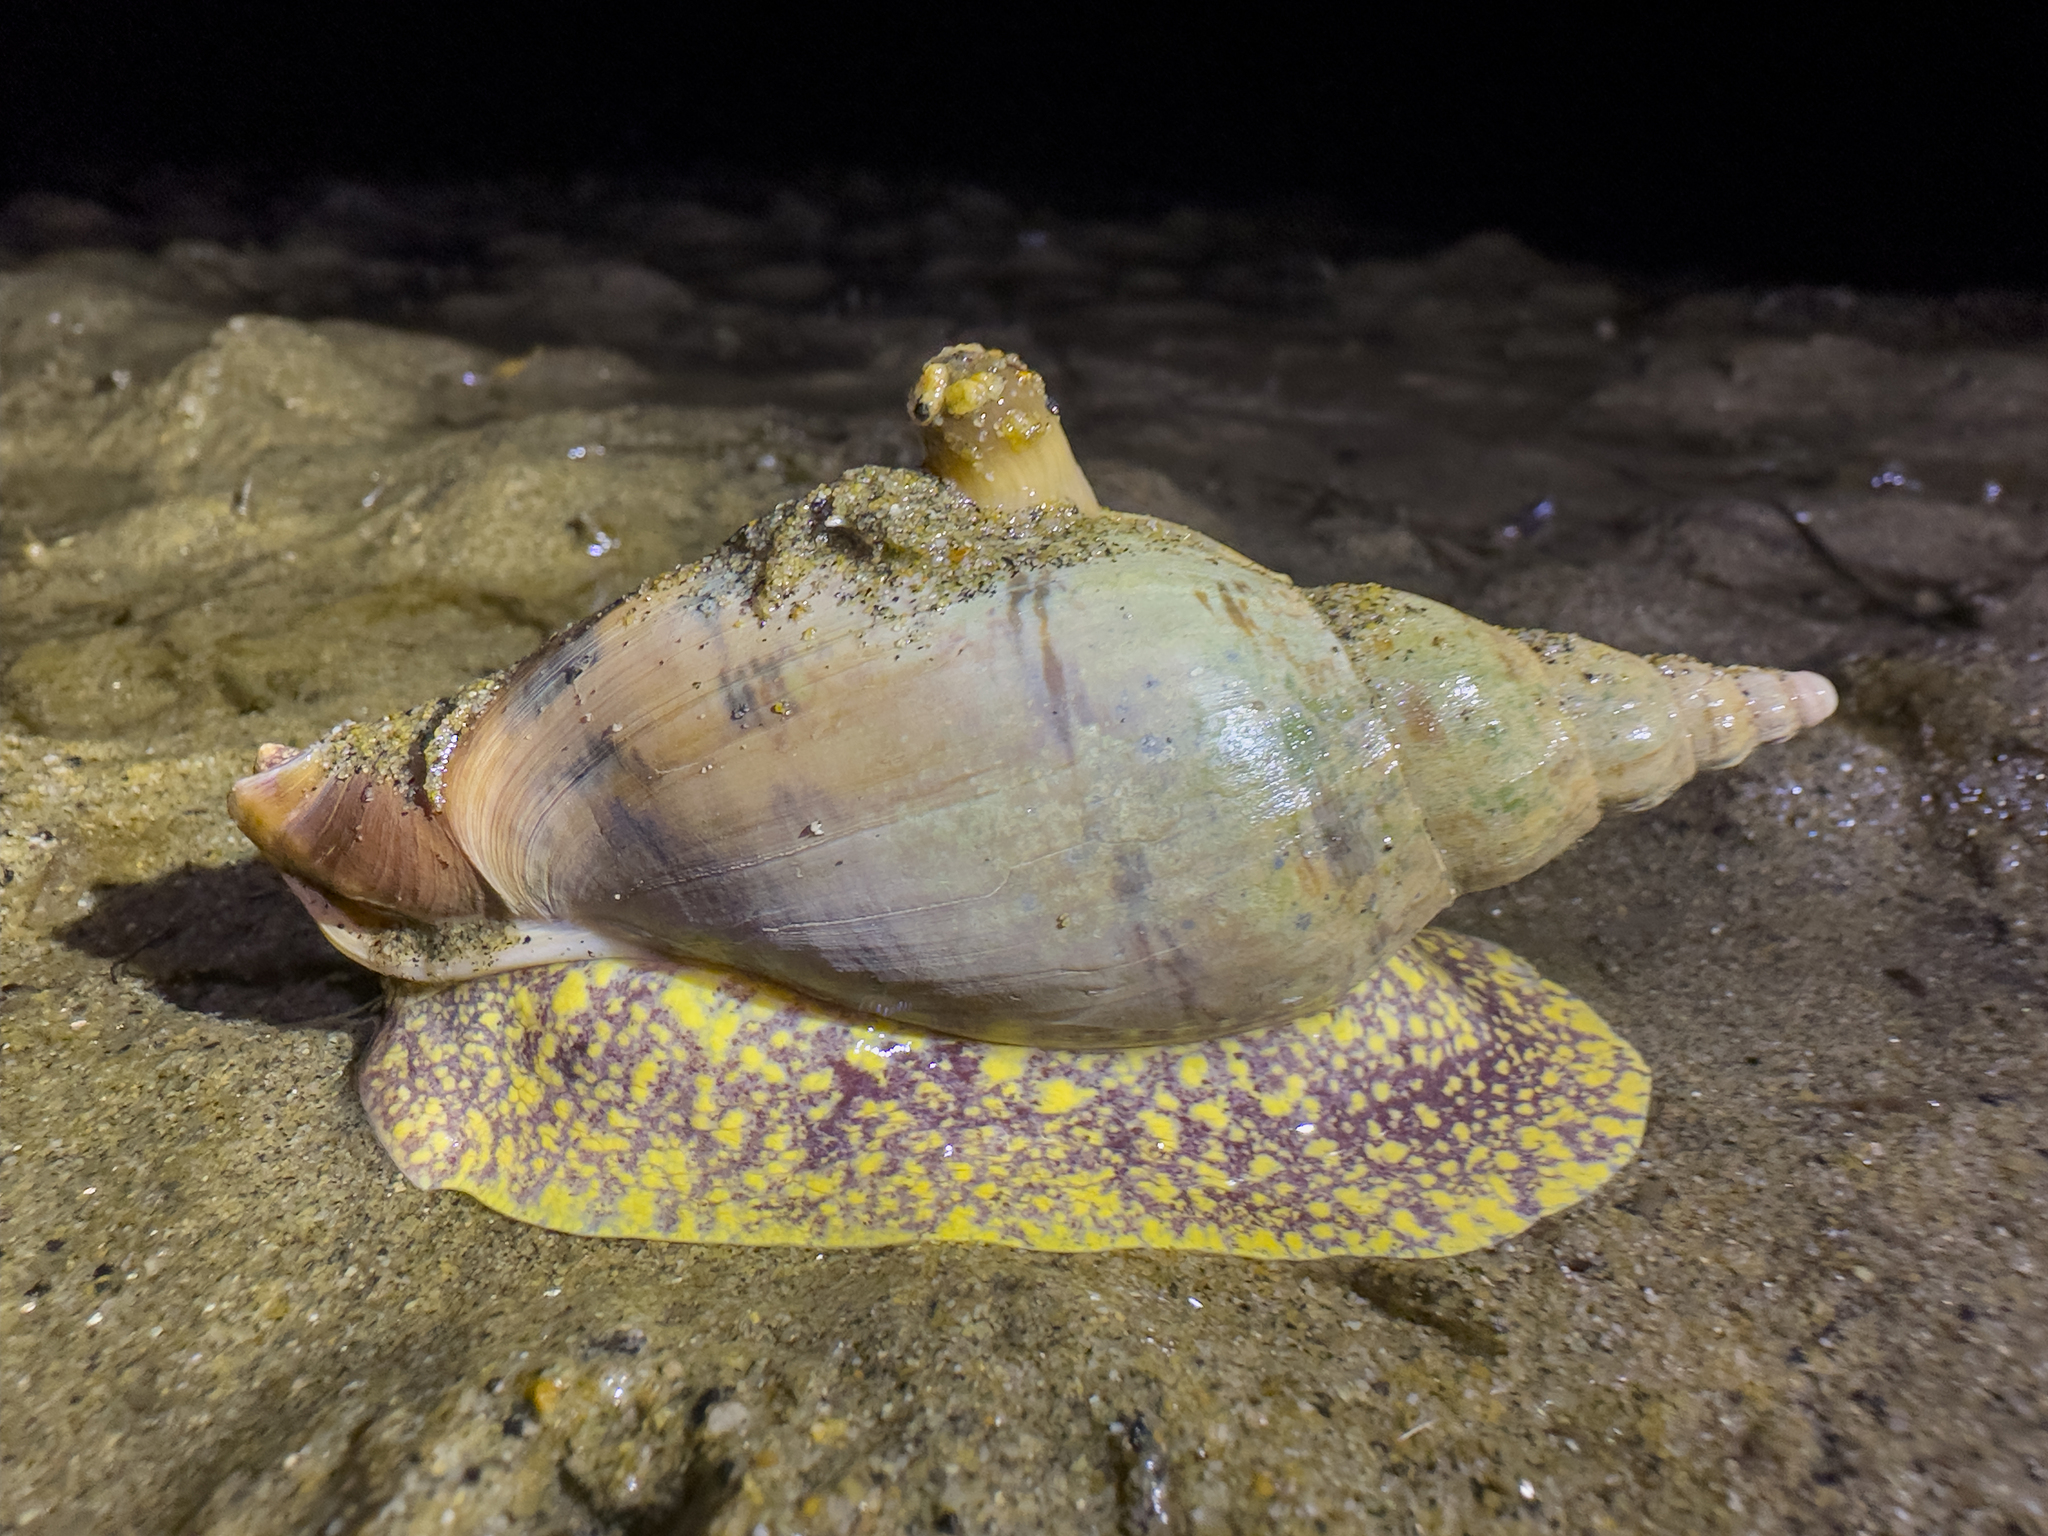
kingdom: Animalia
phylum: Mollusca
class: Gastropoda
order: Neogastropoda
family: Volutidae
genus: Alcithoe
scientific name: Alcithoe arabica
